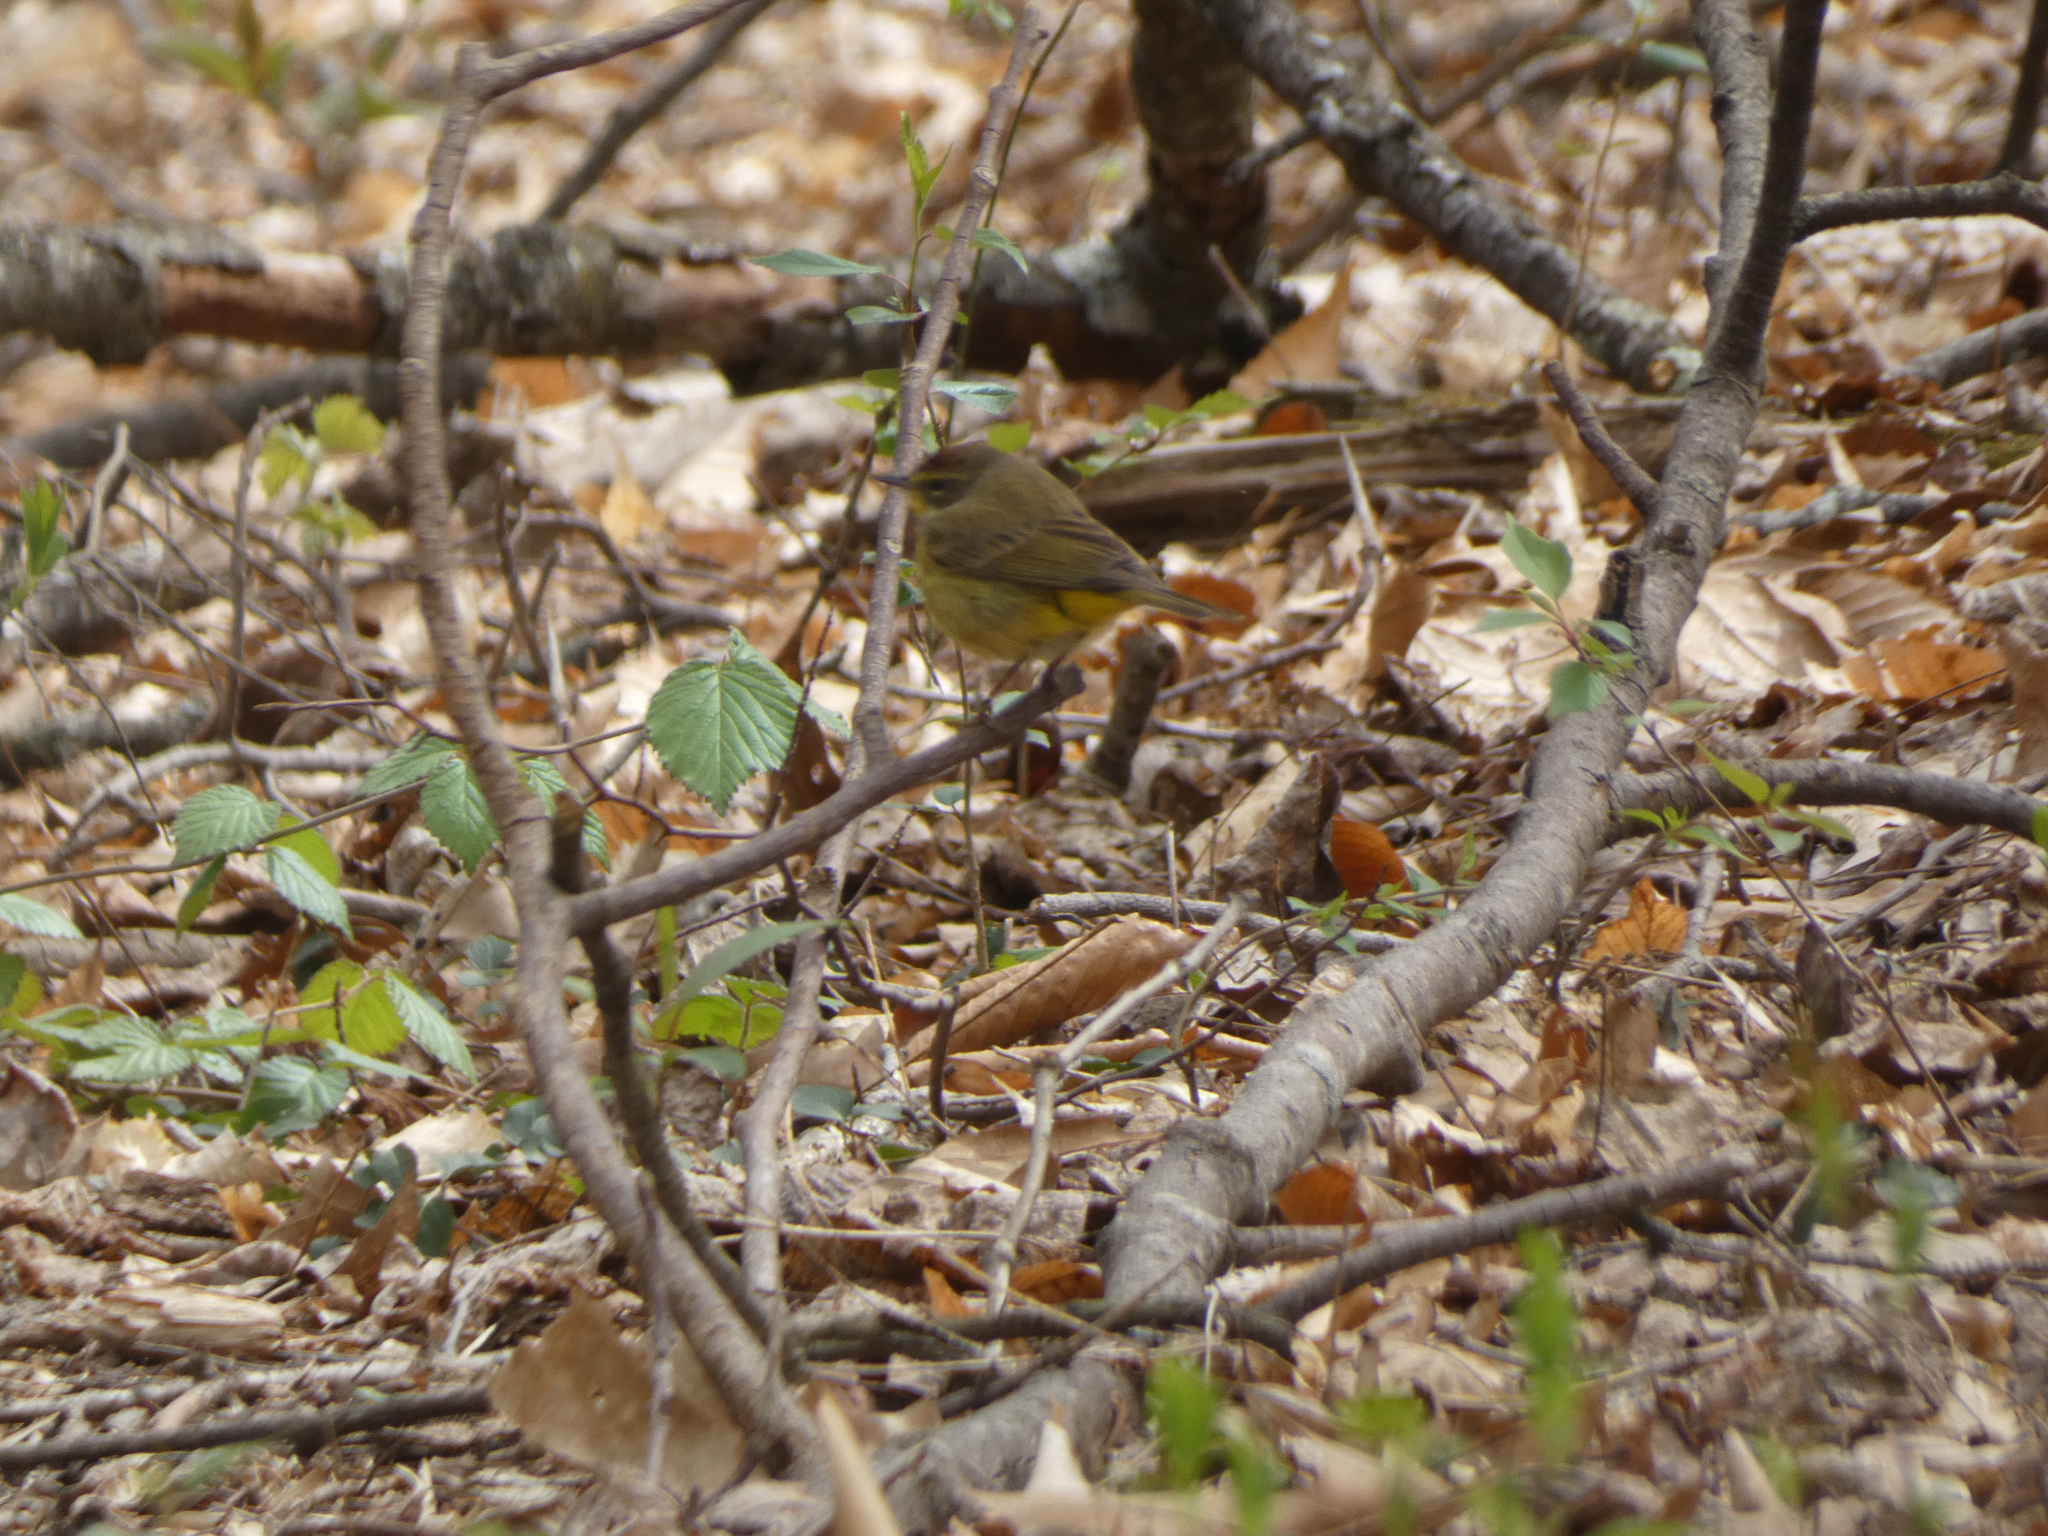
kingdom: Animalia
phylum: Chordata
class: Aves
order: Passeriformes
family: Parulidae
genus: Setophaga
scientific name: Setophaga palmarum
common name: Palm warbler
